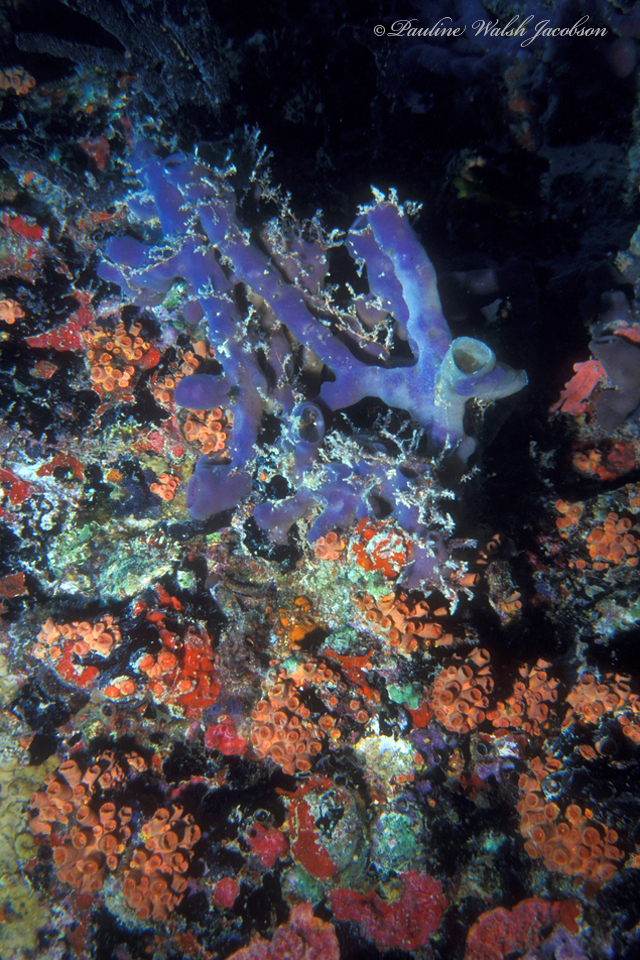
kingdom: Animalia
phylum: Porifera
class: Demospongiae
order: Haplosclerida
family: Callyspongiidae
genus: Callyspongia
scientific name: Callyspongia fallax
